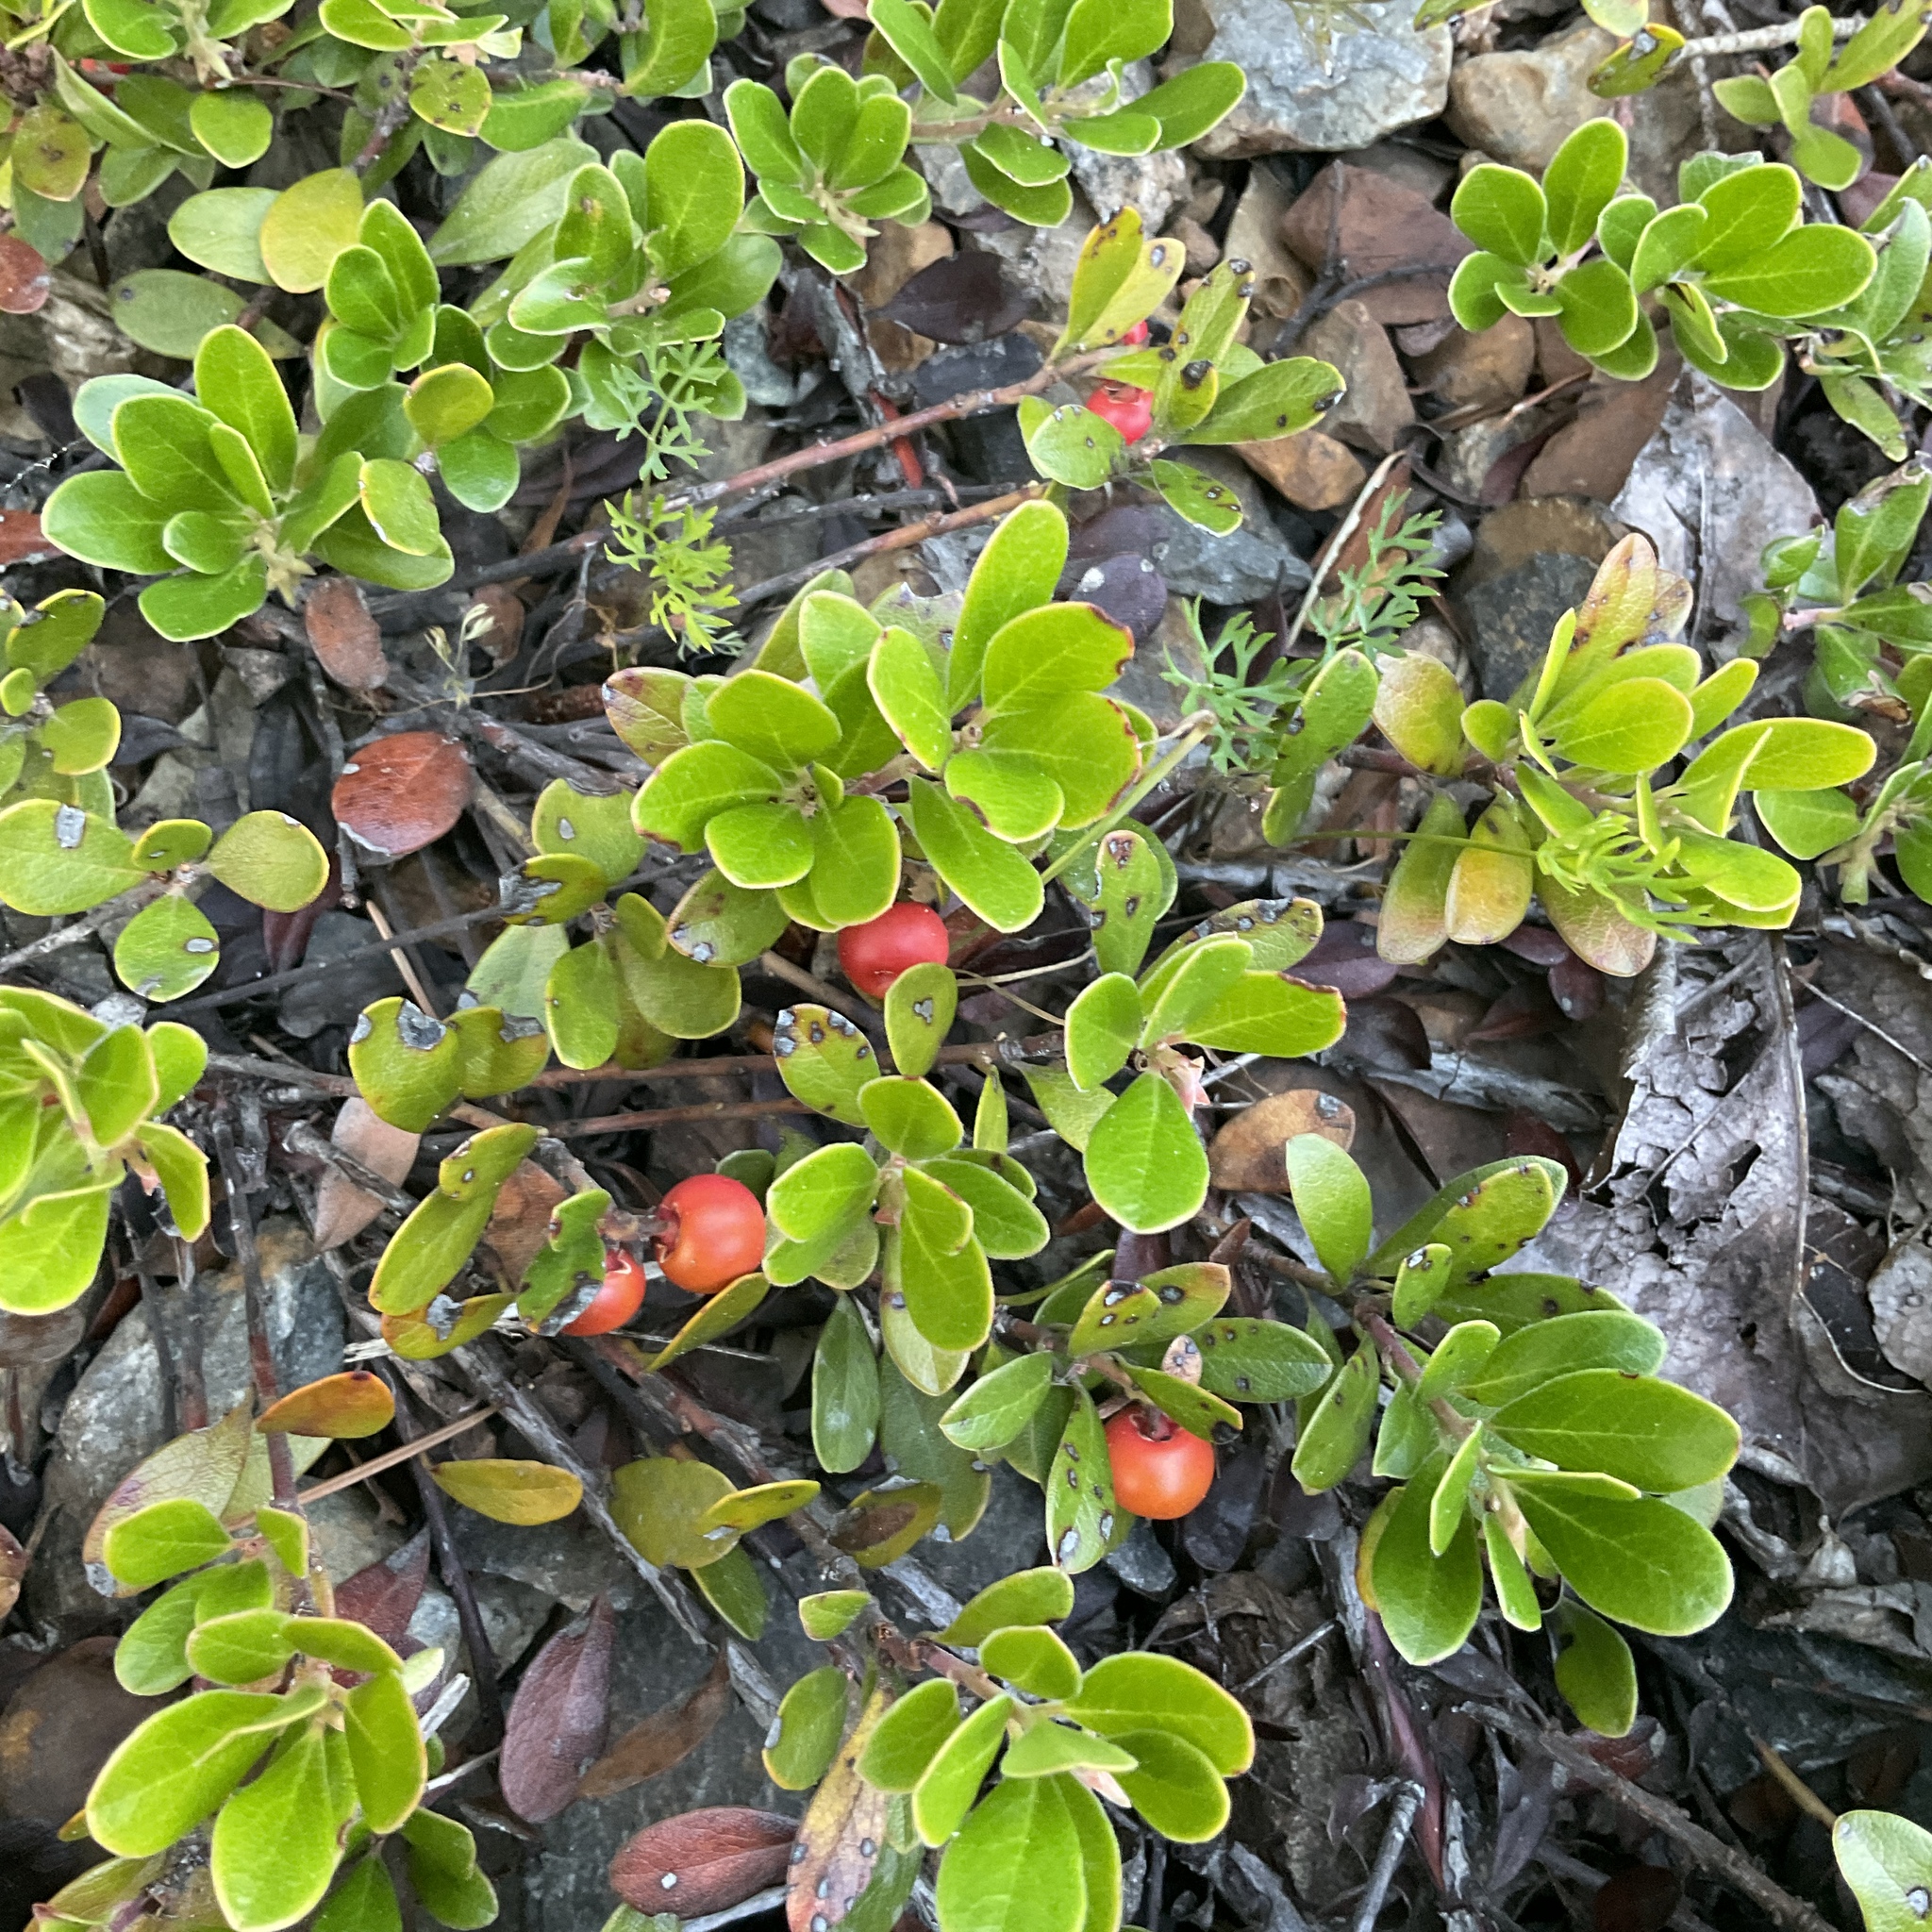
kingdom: Plantae
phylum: Tracheophyta
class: Magnoliopsida
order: Ericales
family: Ericaceae
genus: Arctostaphylos
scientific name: Arctostaphylos uva-ursi
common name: Bearberry
